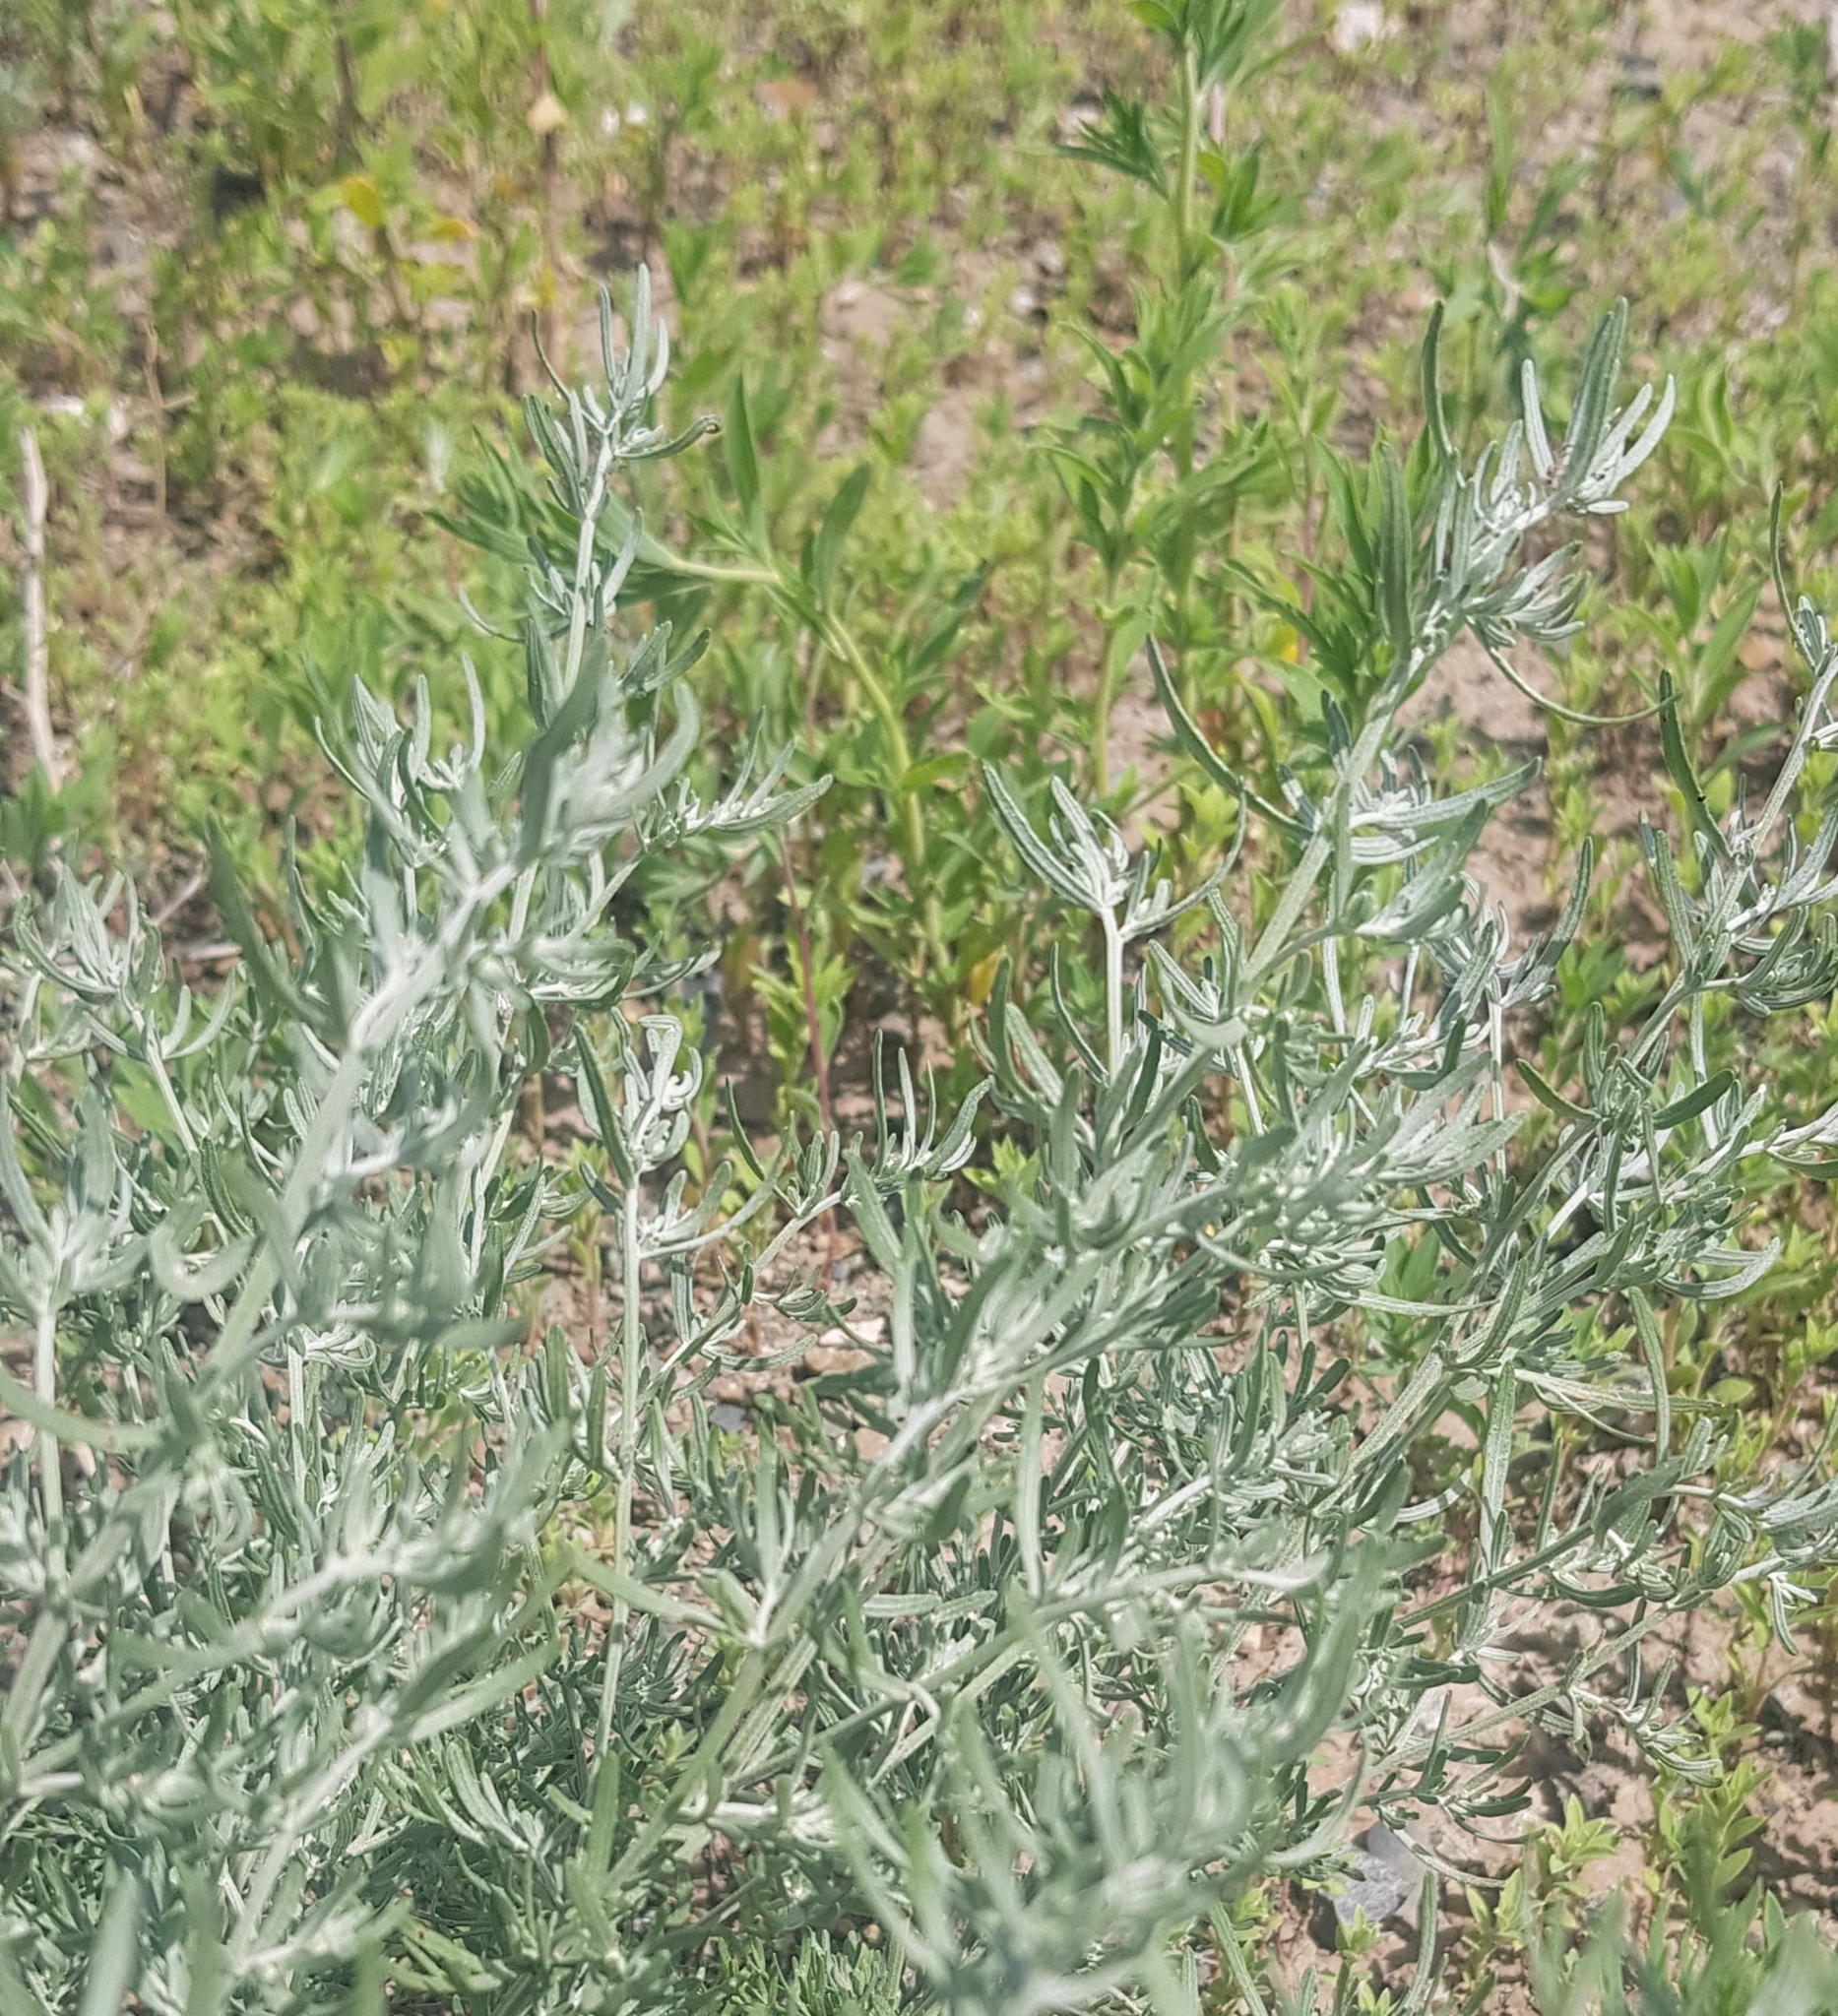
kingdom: Plantae
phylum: Tracheophyta
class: Magnoliopsida
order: Asterales
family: Asteraceae
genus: Artemisia
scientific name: Artemisia sieversiana
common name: Sieversian wormwood
